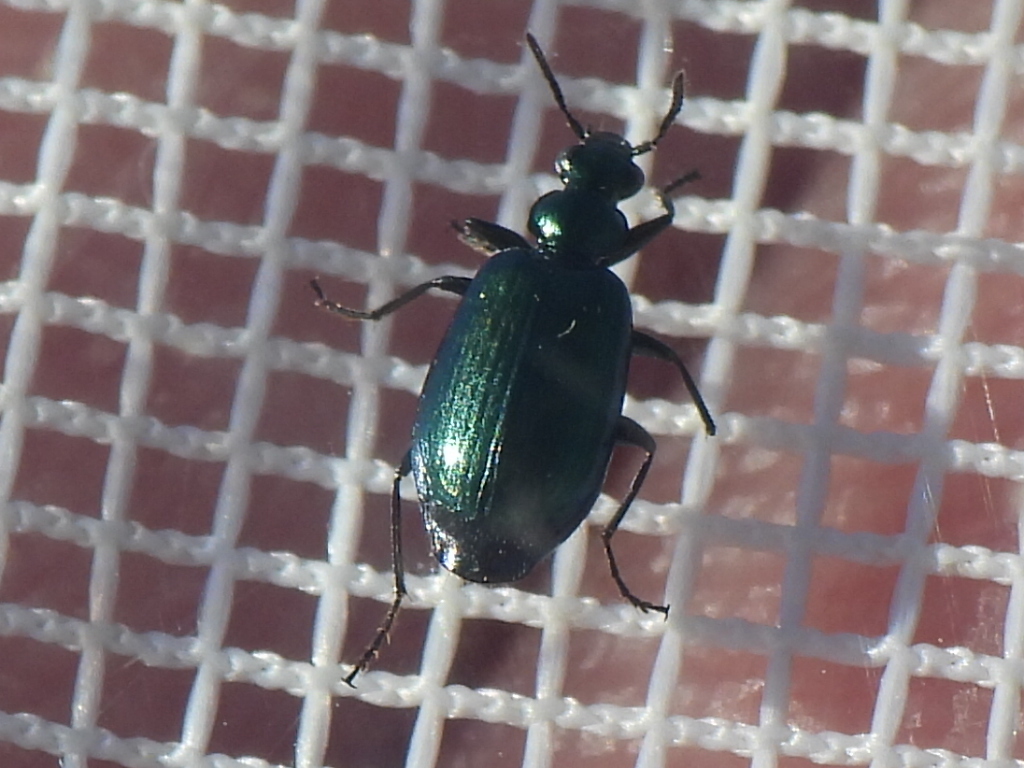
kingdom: Animalia
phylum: Arthropoda
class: Insecta
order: Coleoptera
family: Carabidae
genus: Lebia
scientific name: Lebia viridis
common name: Flower lebia beetle
